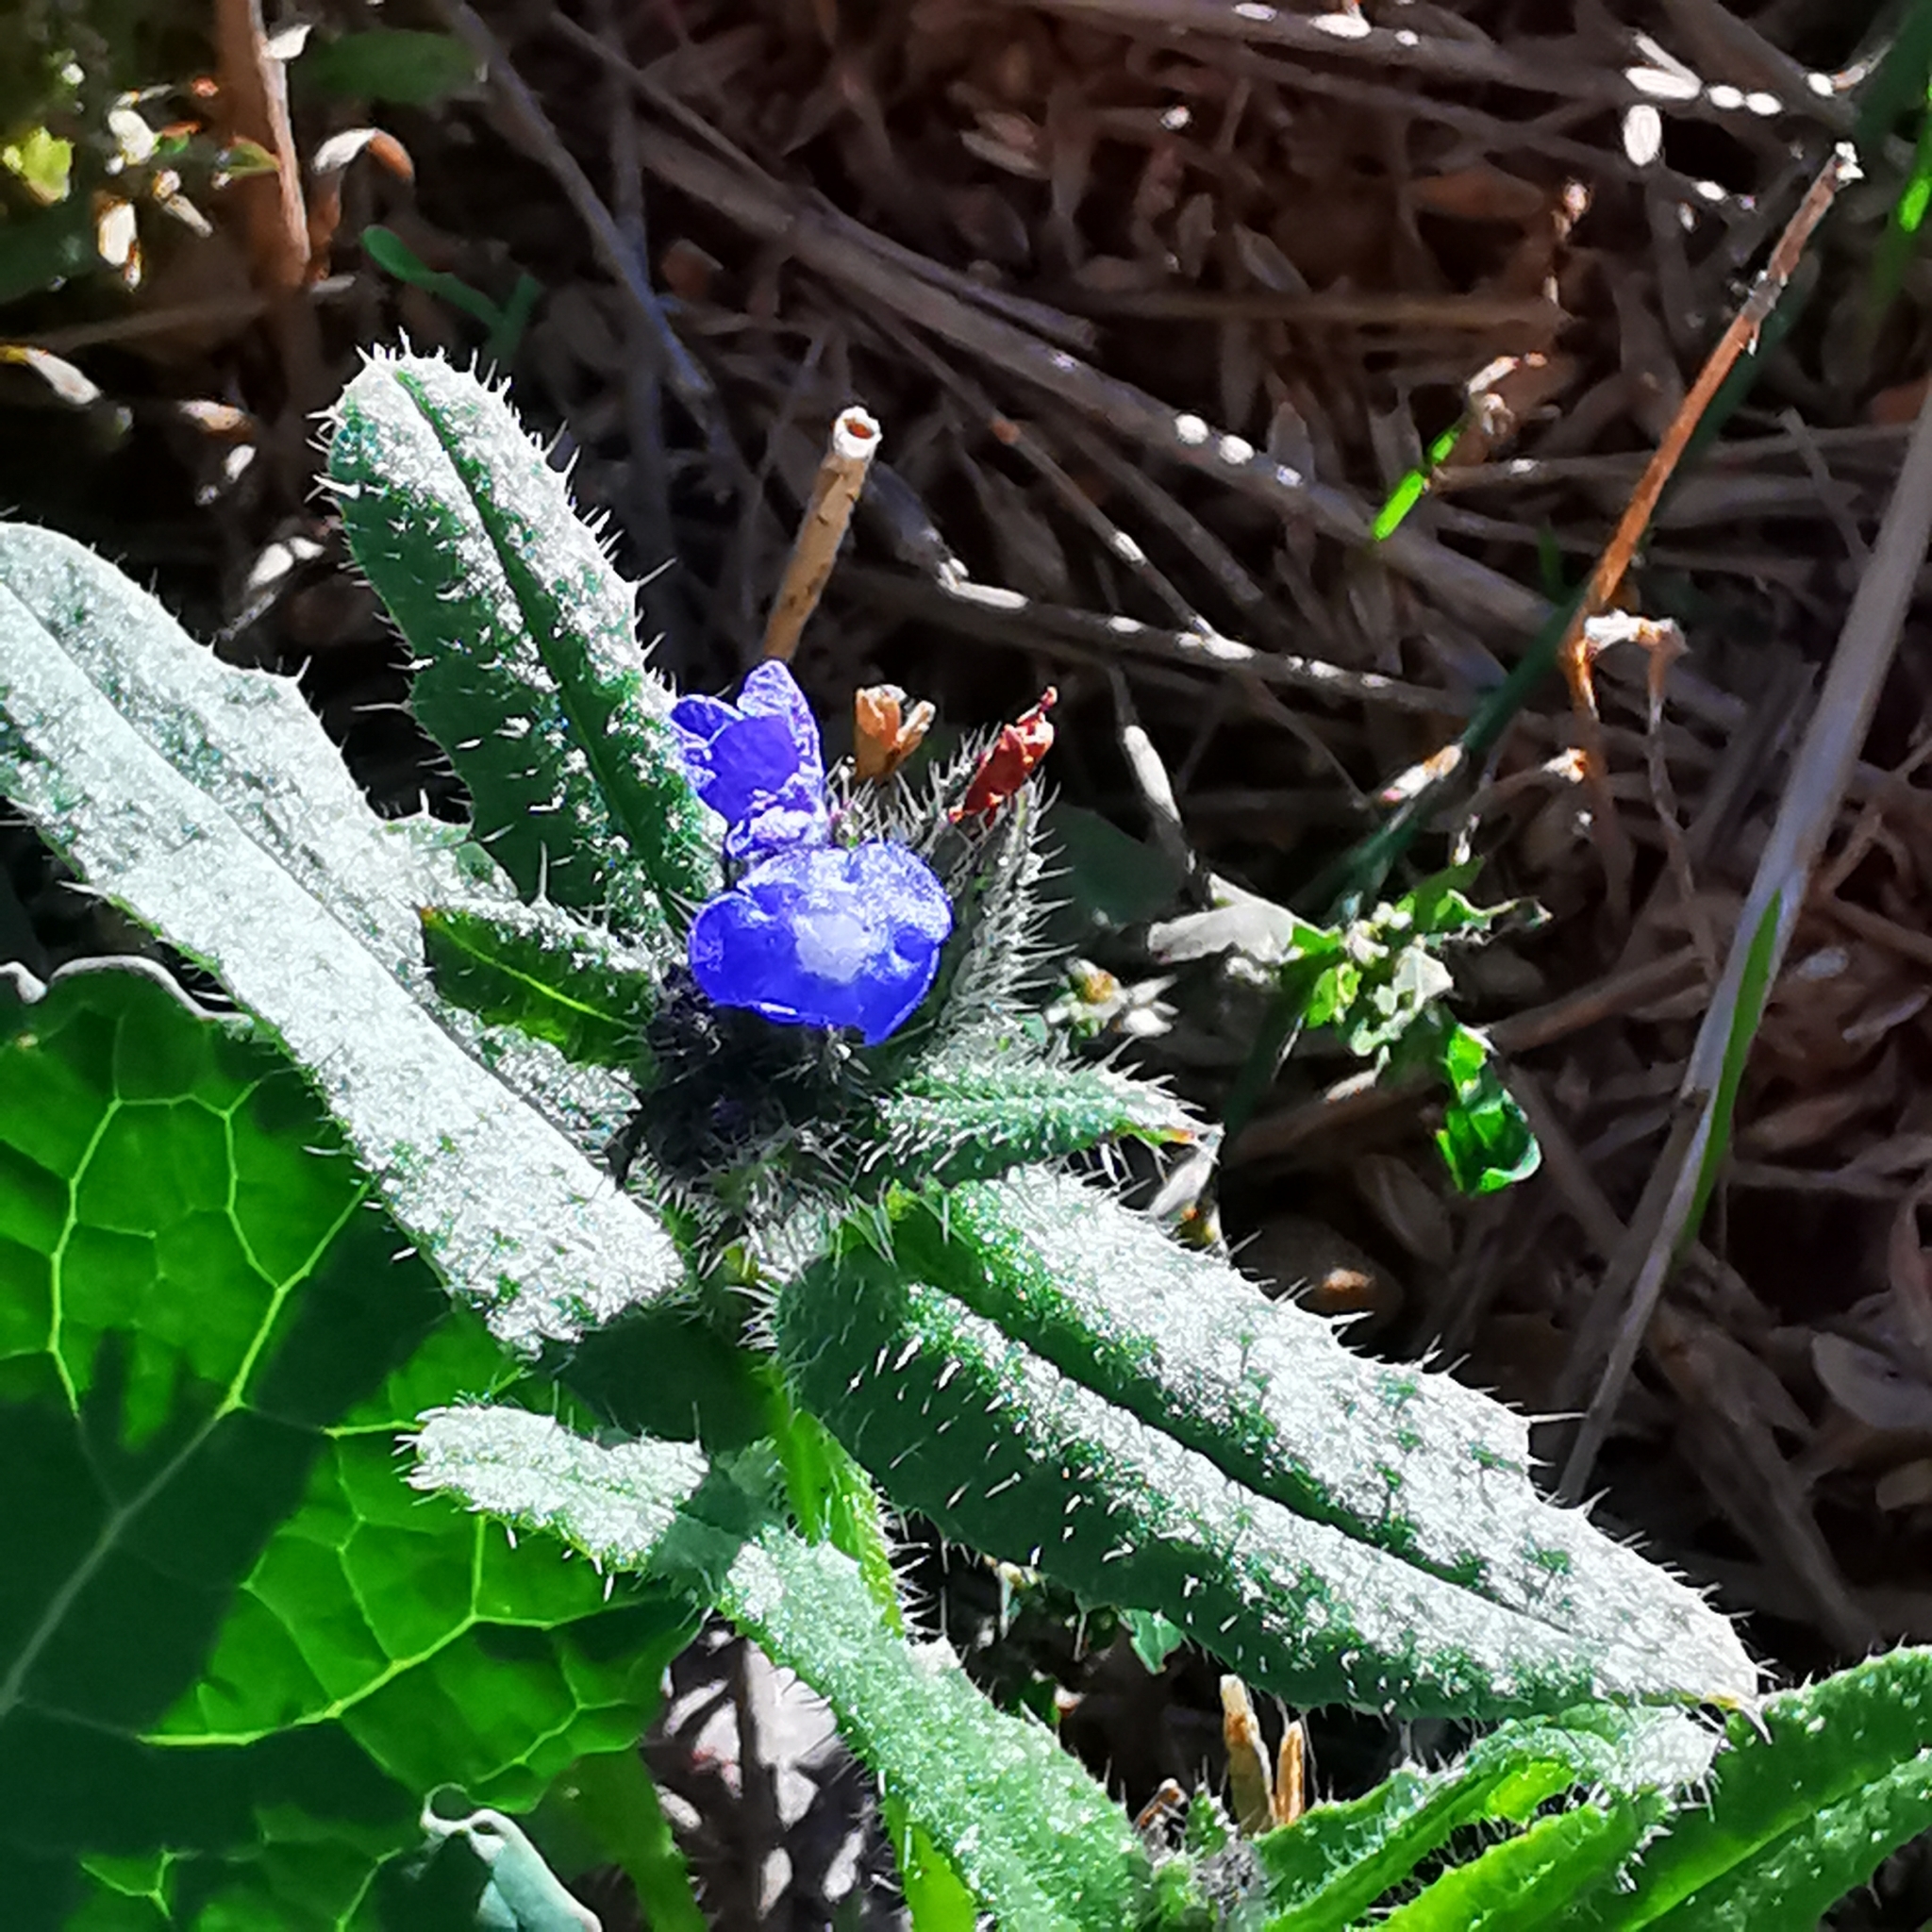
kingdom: Plantae
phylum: Tracheophyta
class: Magnoliopsida
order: Boraginales
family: Boraginaceae
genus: Lycopsis
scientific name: Lycopsis arvensis
